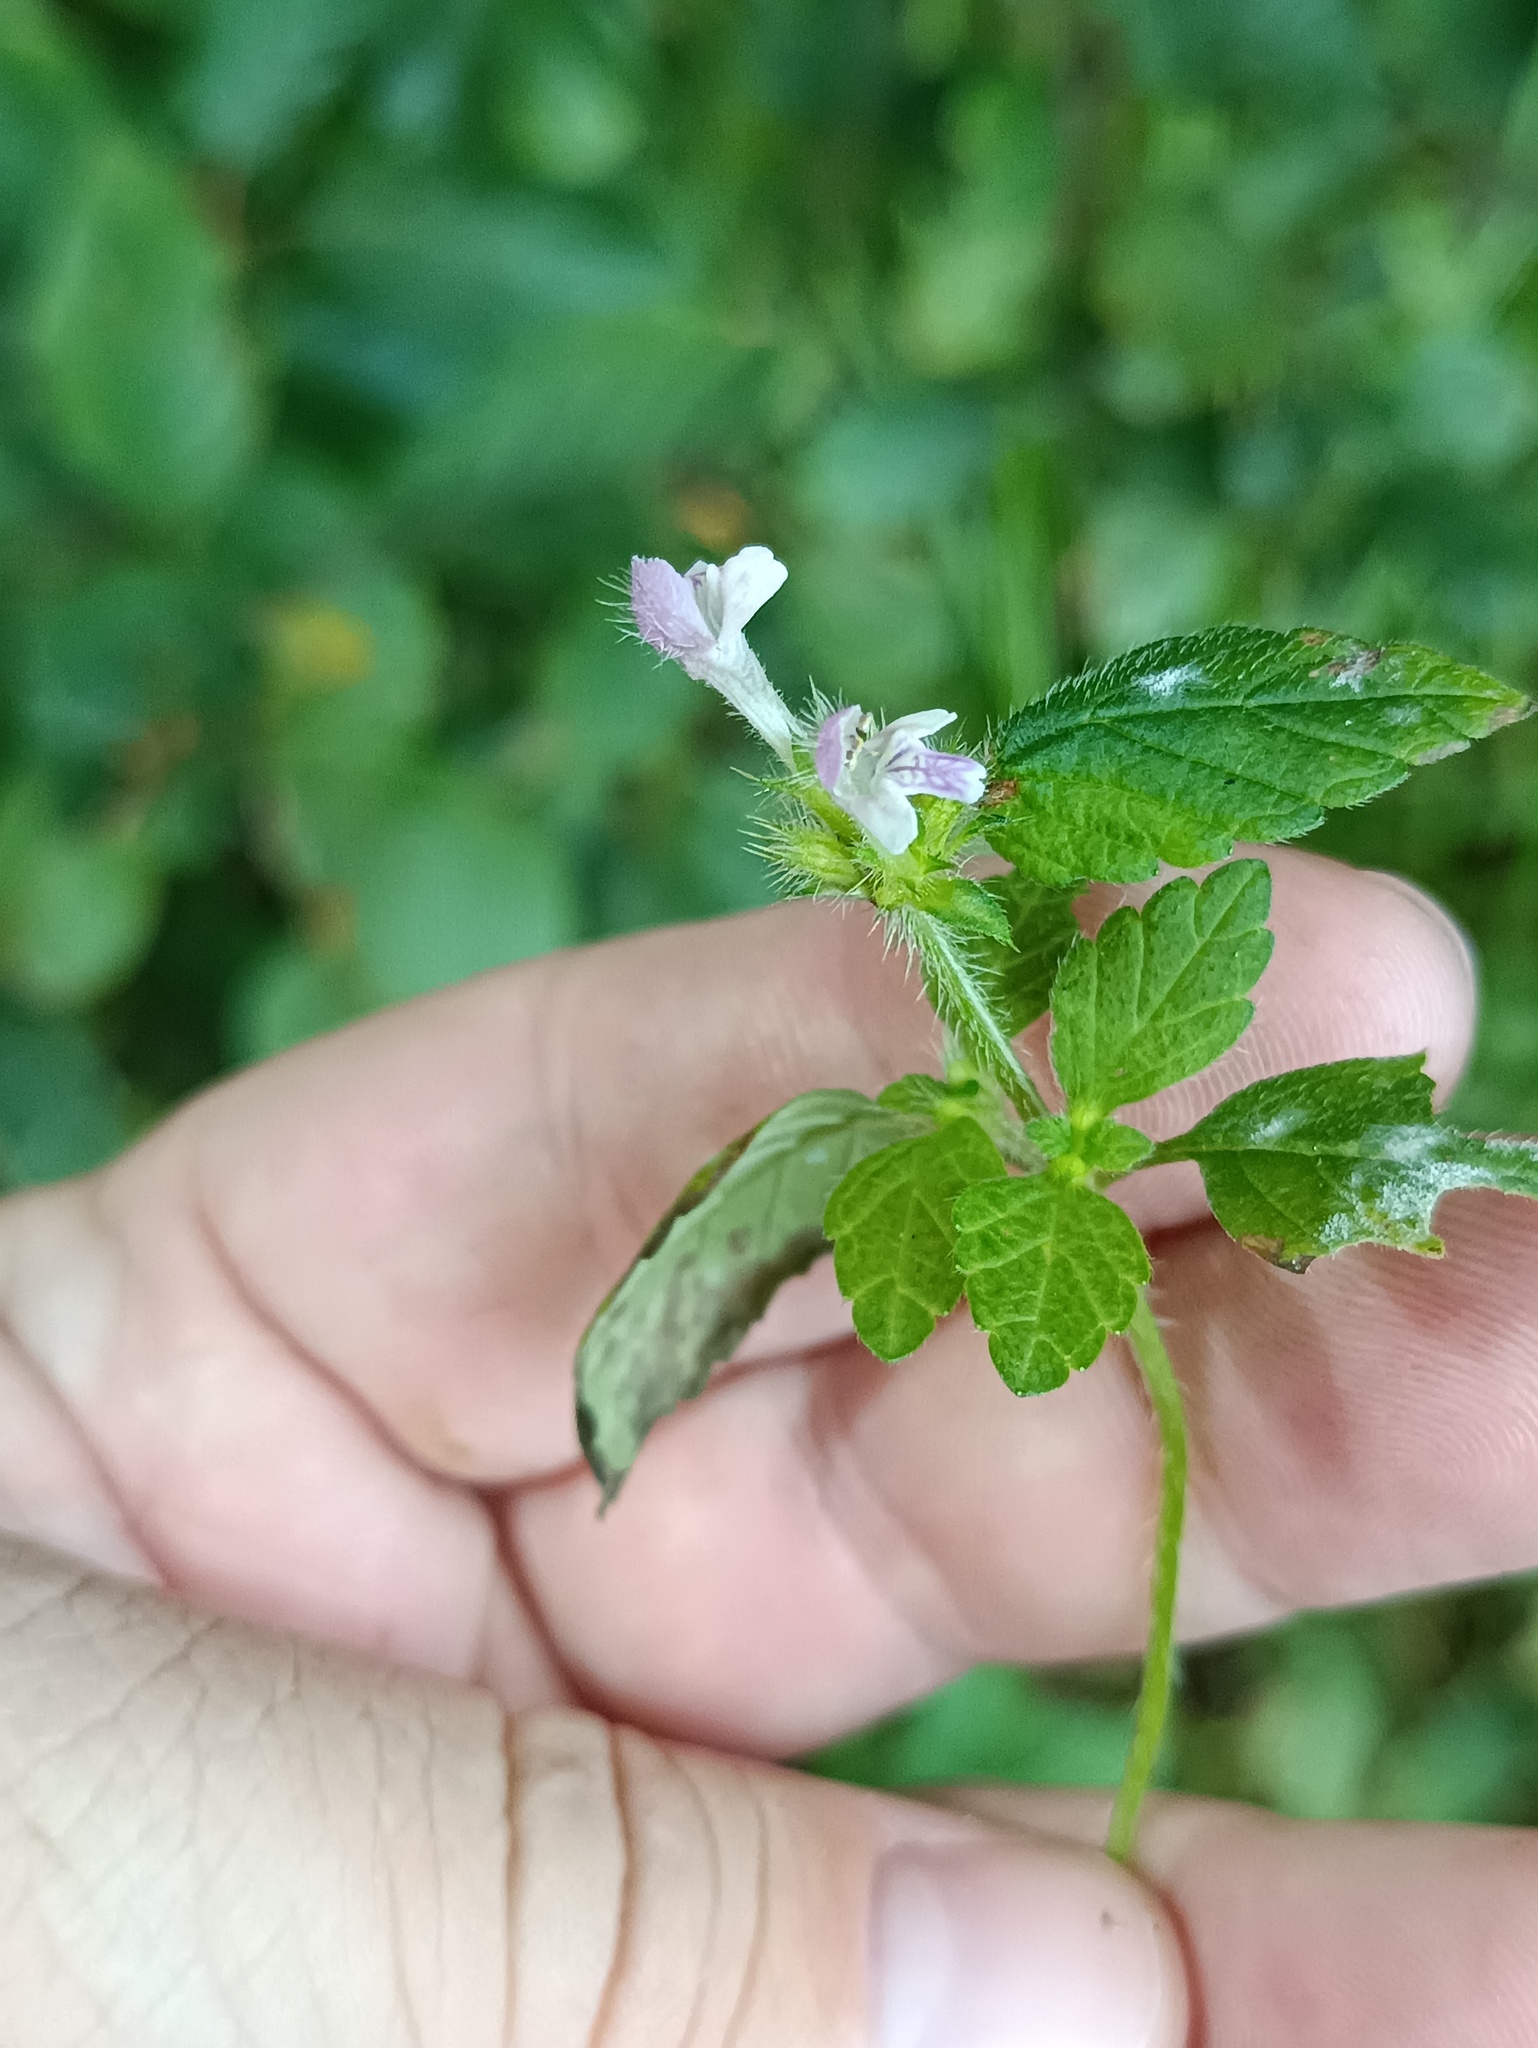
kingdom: Plantae
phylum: Tracheophyta
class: Magnoliopsida
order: Lamiales
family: Lamiaceae
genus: Galeopsis
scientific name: Galeopsis bifida
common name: Bifid hemp-nettle
